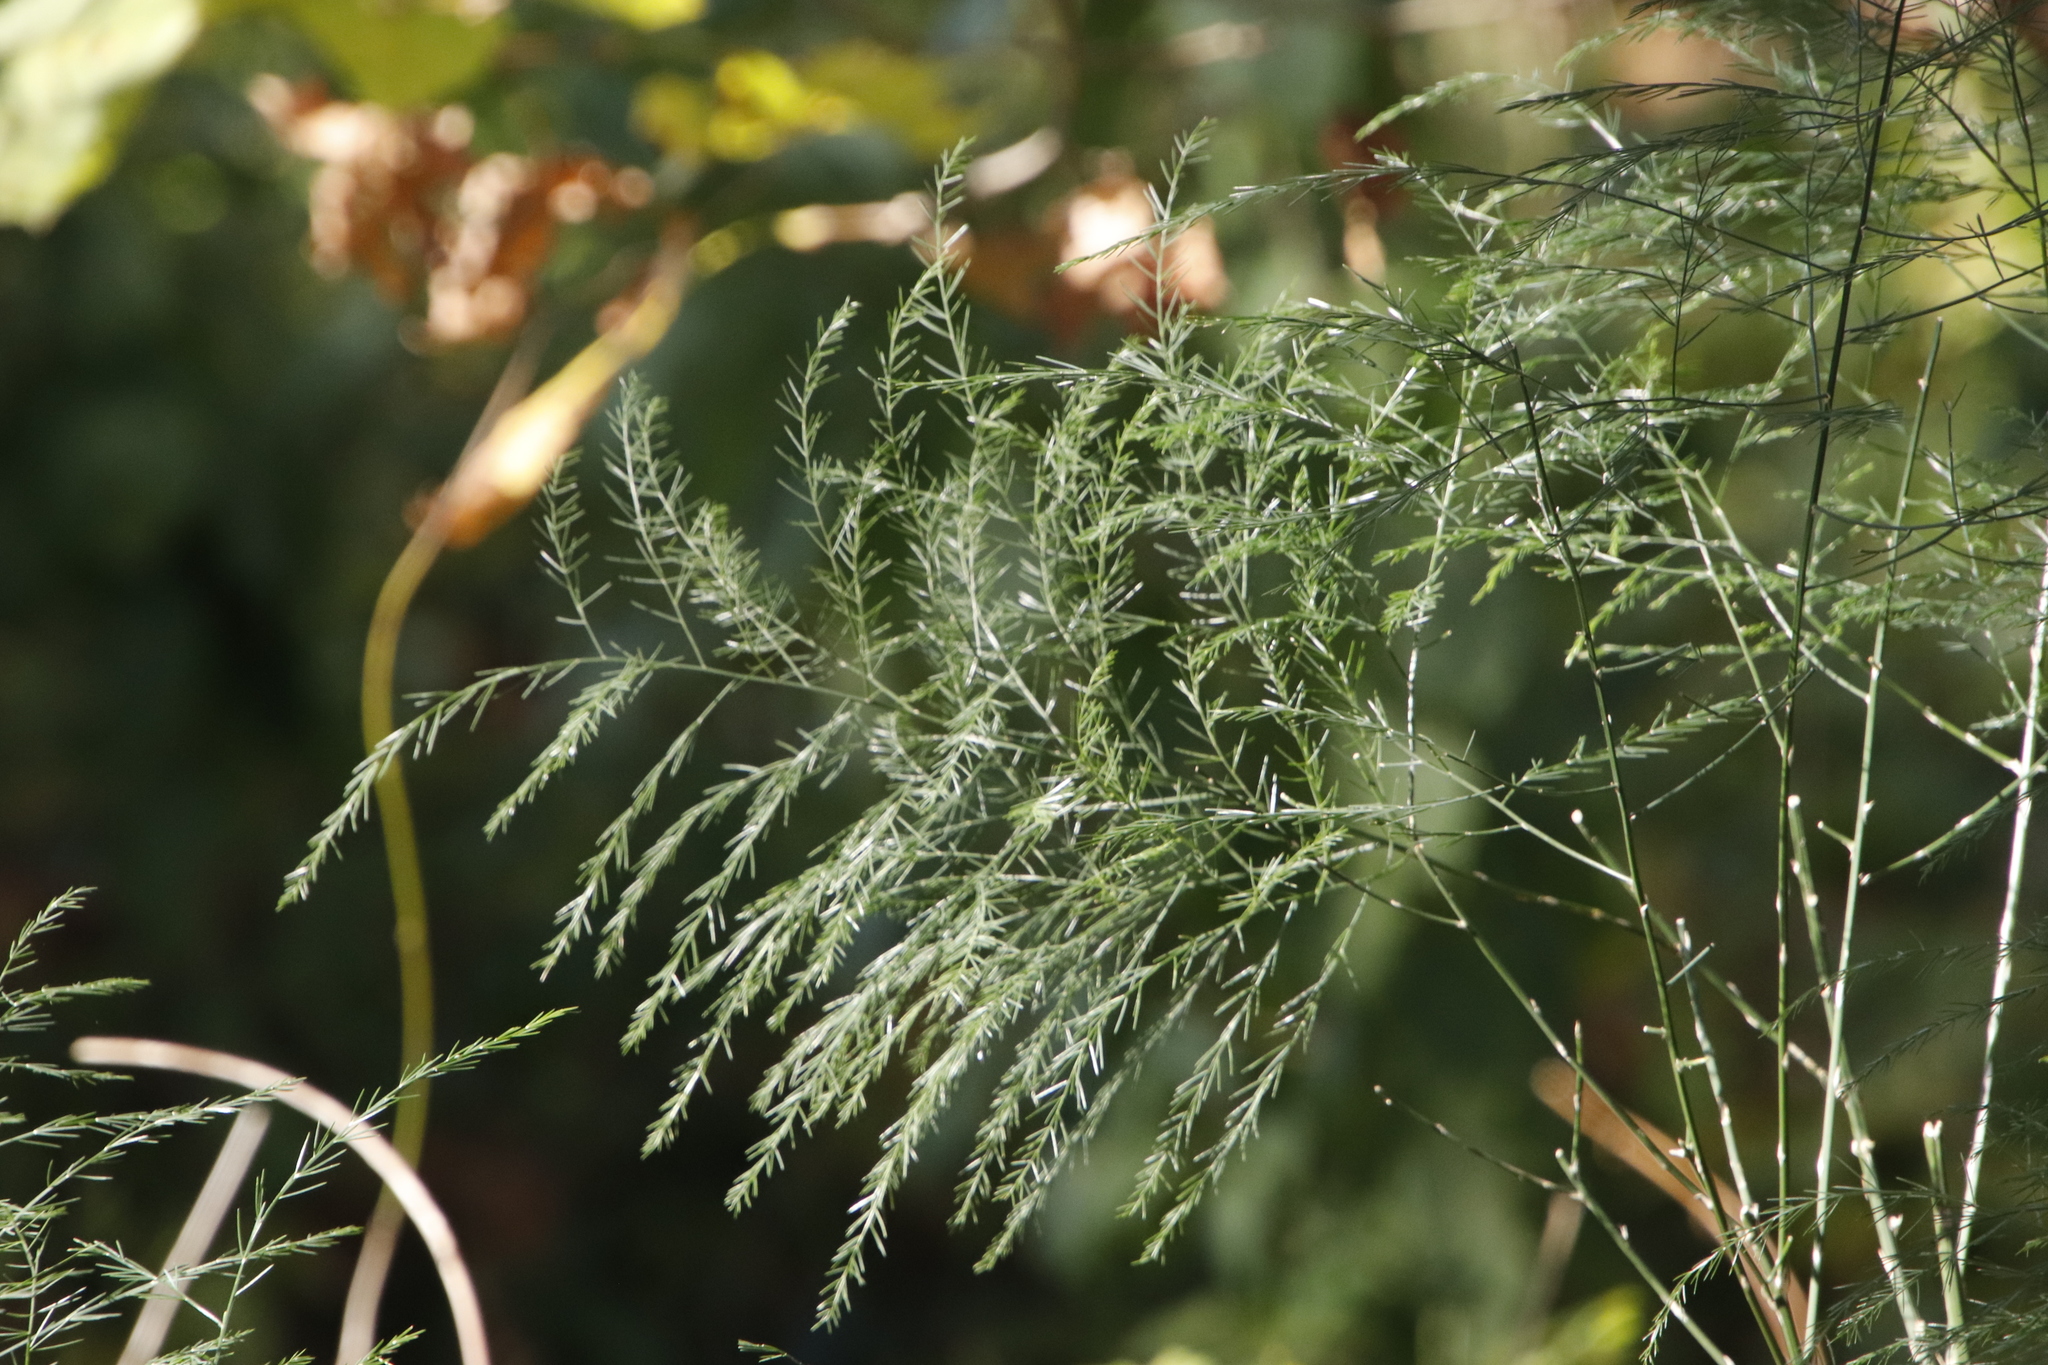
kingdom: Plantae
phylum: Tracheophyta
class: Liliopsida
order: Asparagales
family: Asparagaceae
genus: Asparagus
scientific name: Asparagus virgatus
